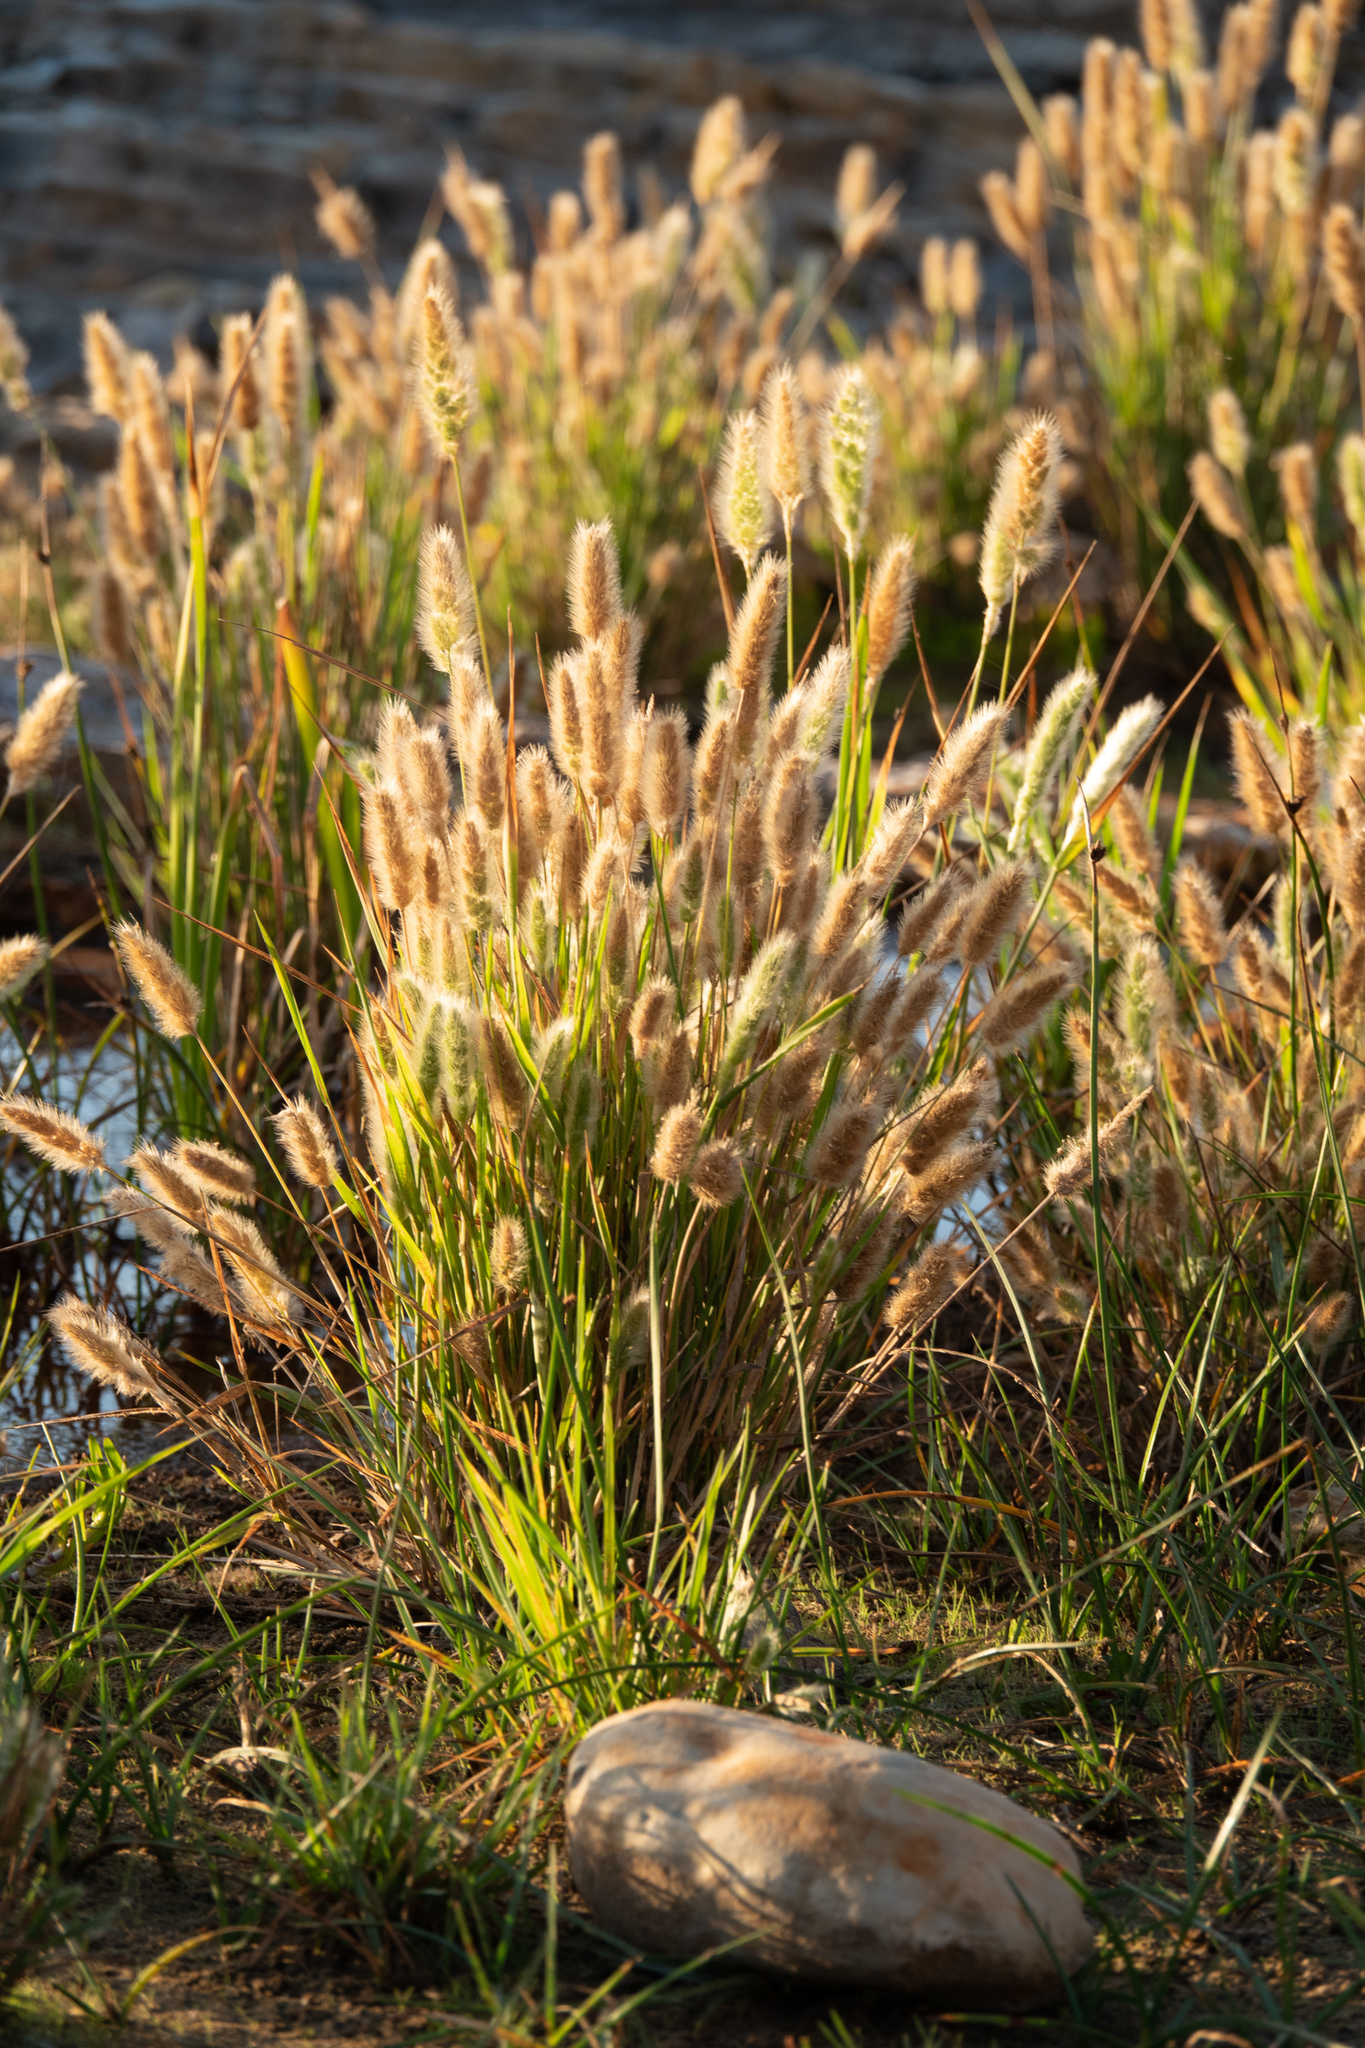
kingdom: Plantae
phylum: Tracheophyta
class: Liliopsida
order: Poales
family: Poaceae
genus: Polypogon
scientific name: Polypogon monspeliensis
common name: Annual rabbitsfoot grass
